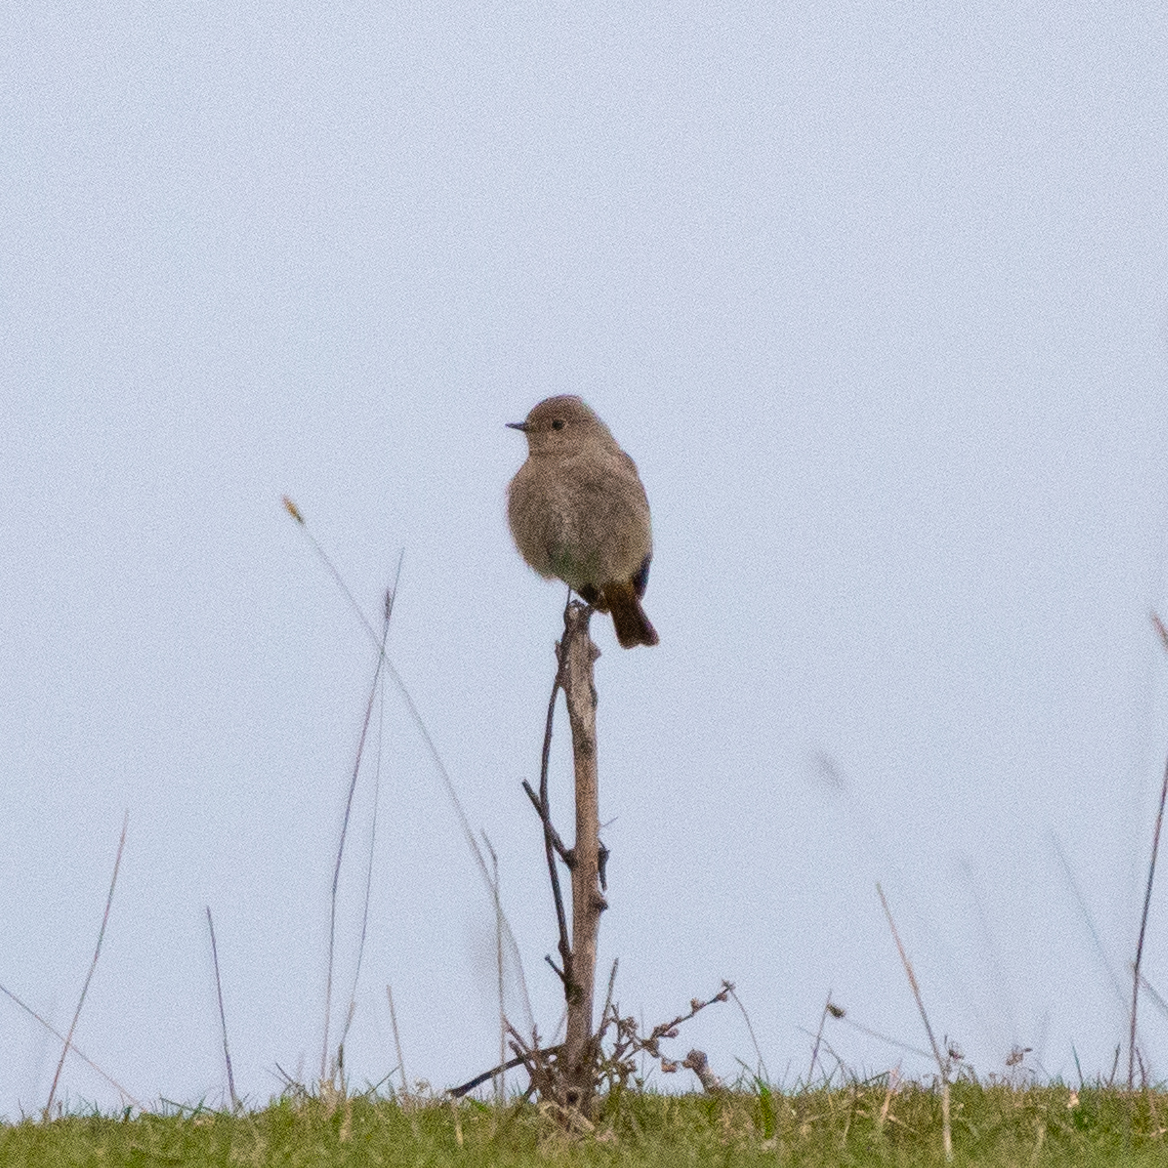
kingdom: Animalia
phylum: Chordata
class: Aves
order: Passeriformes
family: Muscicapidae
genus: Phoenicurus
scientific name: Phoenicurus ochruros
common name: Black redstart
